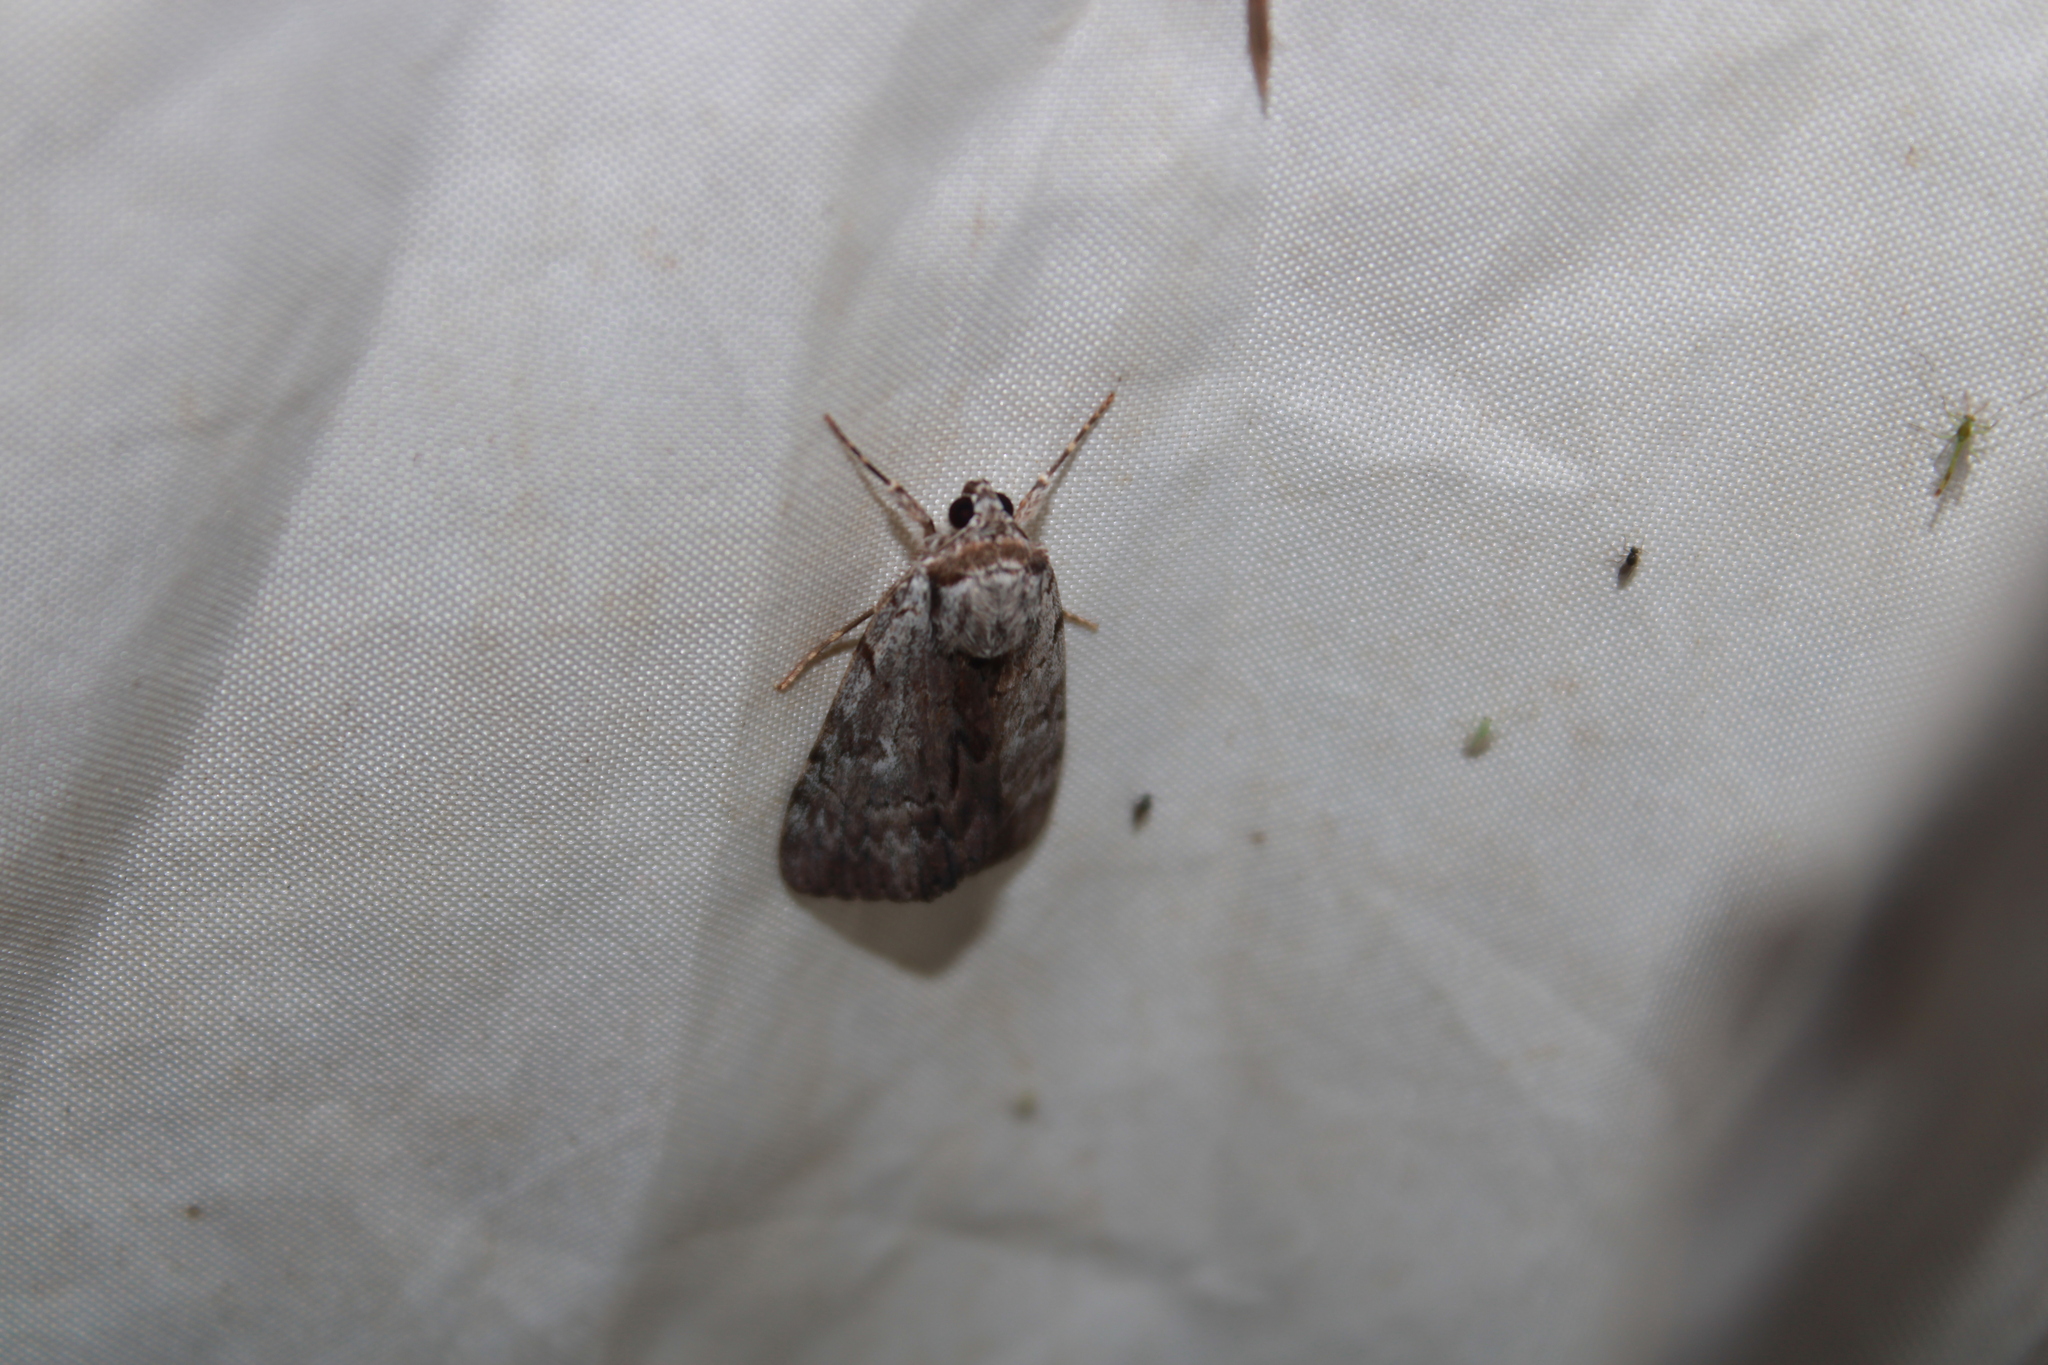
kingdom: Animalia
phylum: Arthropoda
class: Insecta
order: Lepidoptera
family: Erebidae
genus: Catocala
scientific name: Catocala gracilis
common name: Graceful underwing
